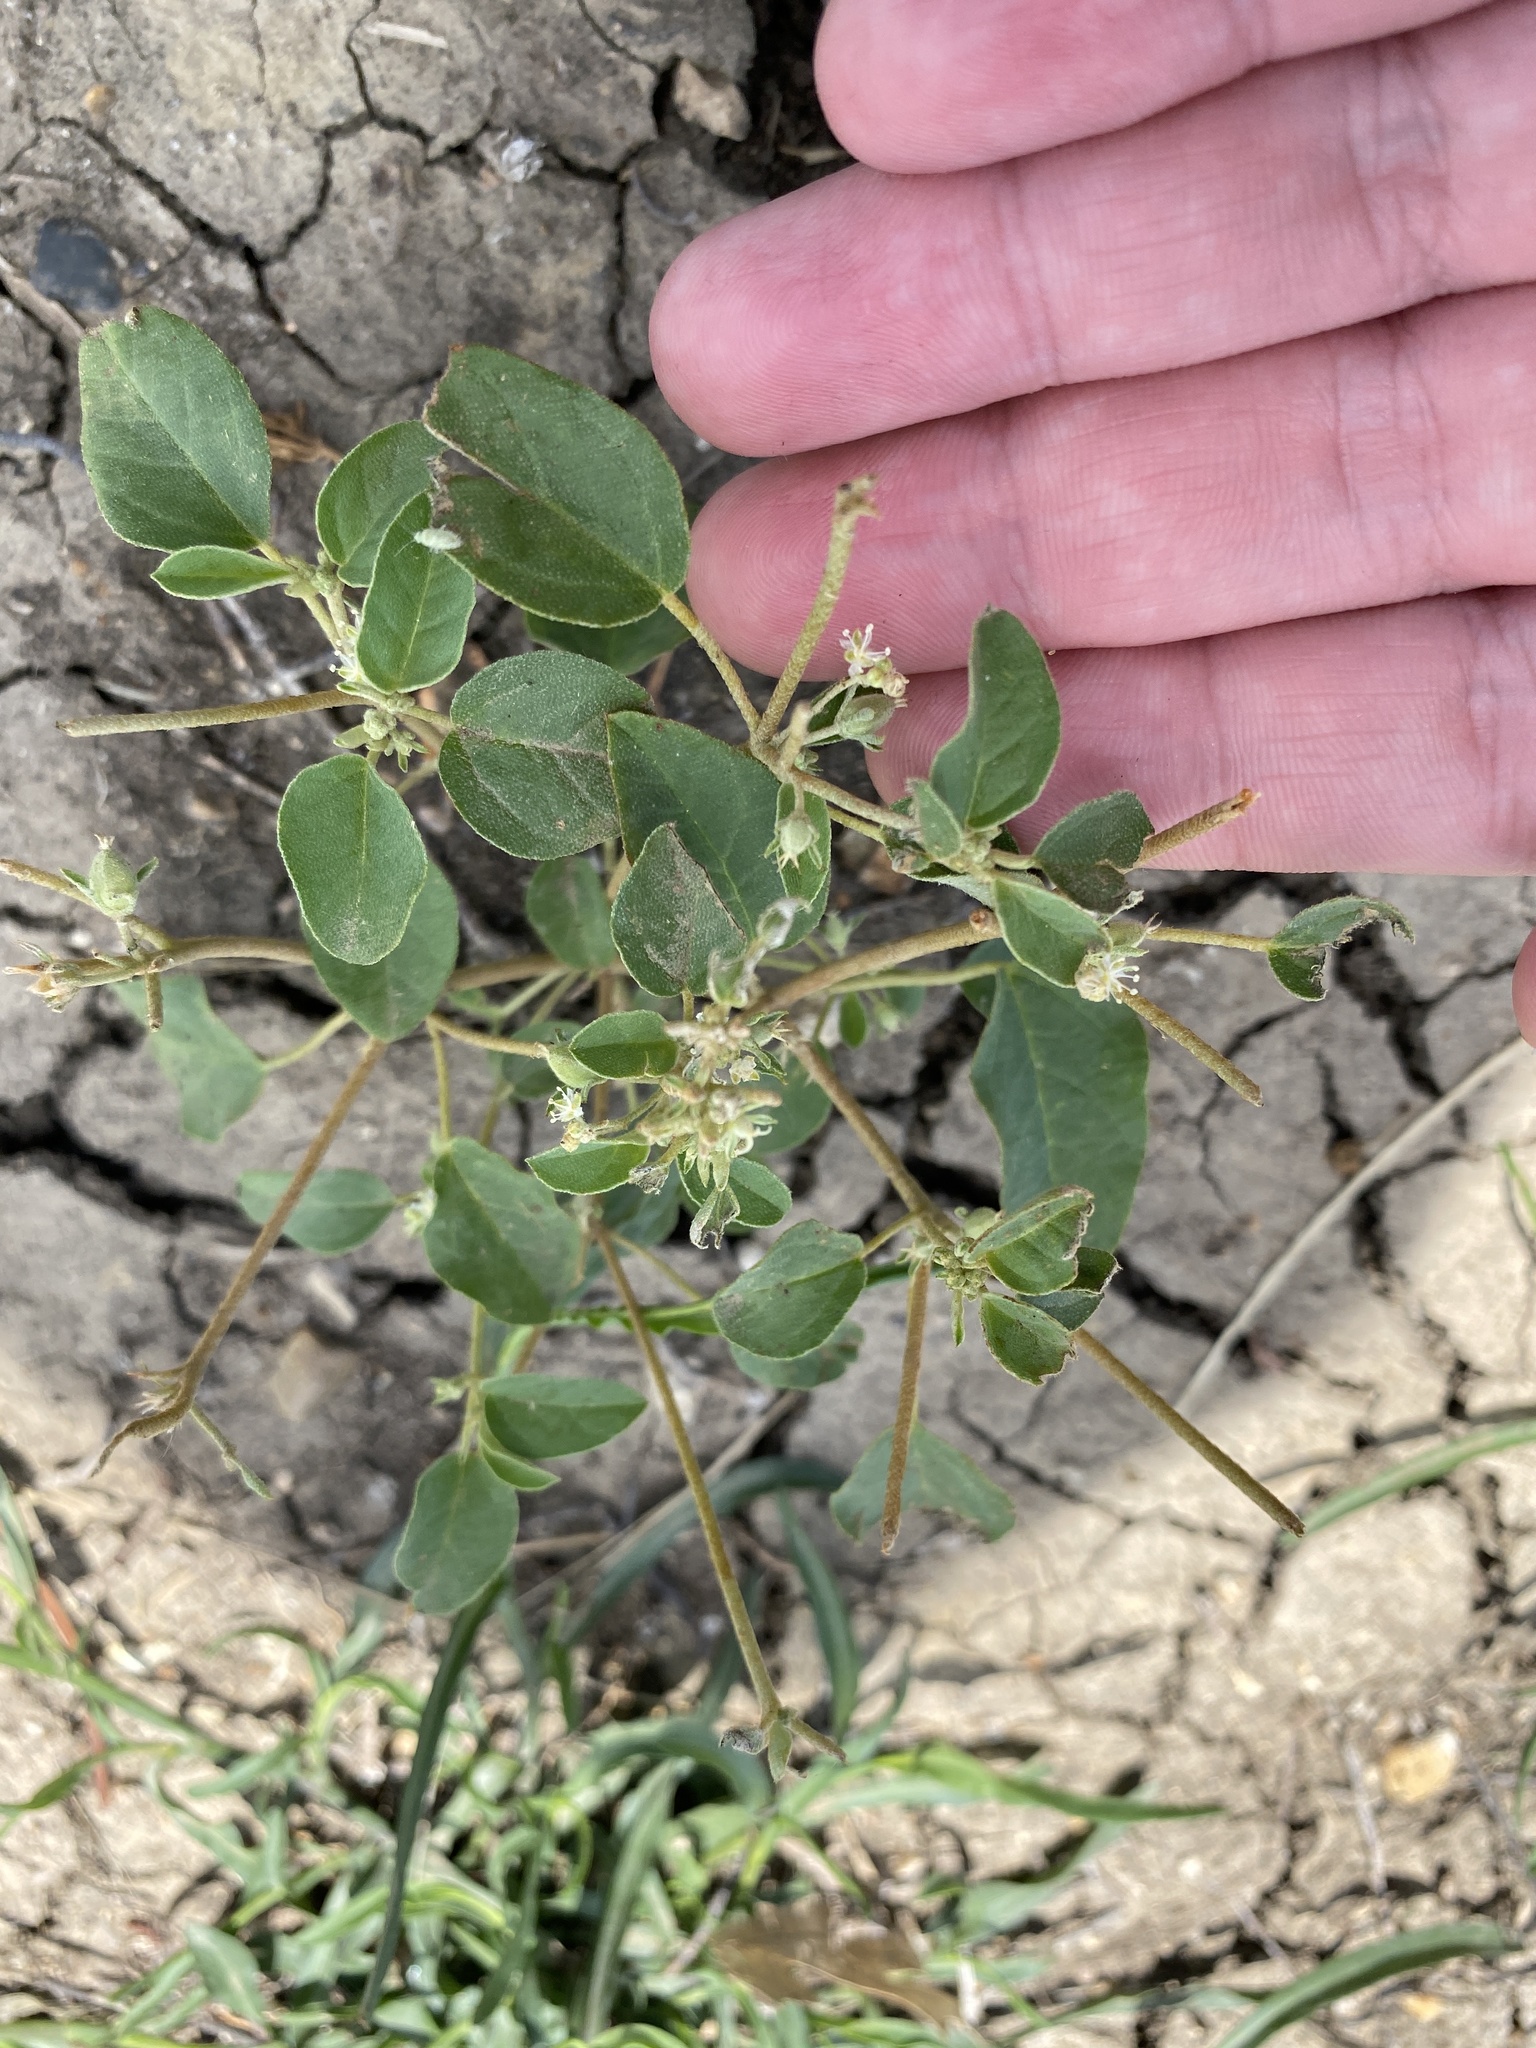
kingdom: Plantae
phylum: Tracheophyta
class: Magnoliopsida
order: Malpighiales
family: Euphorbiaceae
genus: Croton
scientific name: Croton monanthogynus
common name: One-seed croton
